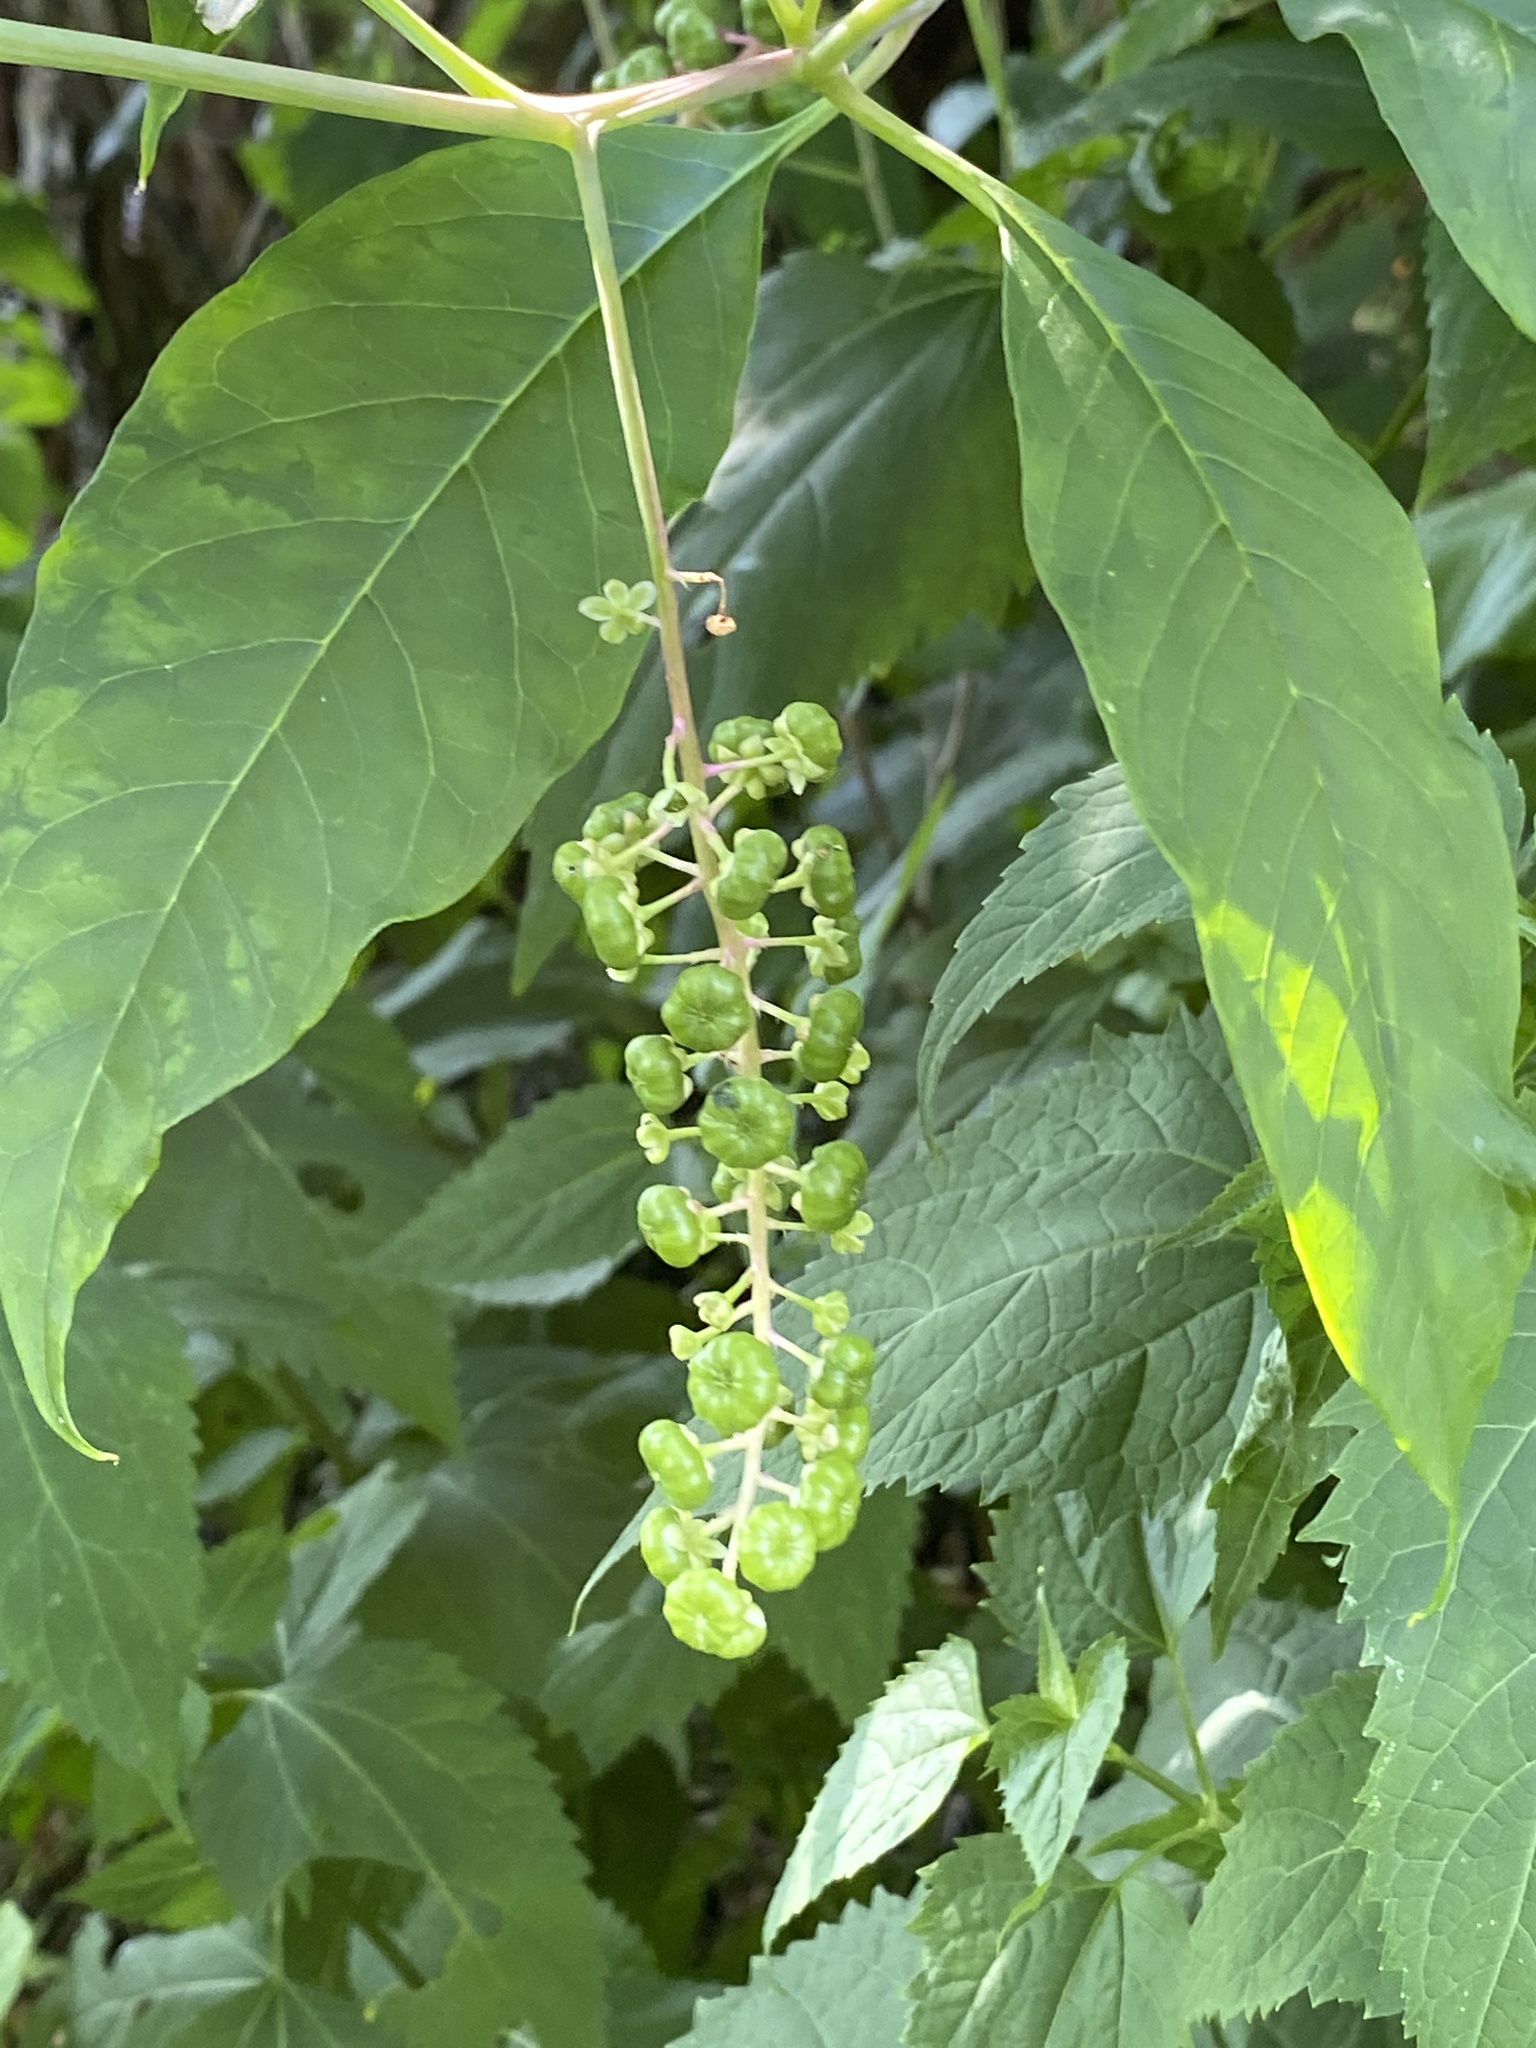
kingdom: Plantae
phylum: Tracheophyta
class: Magnoliopsida
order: Caryophyllales
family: Phytolaccaceae
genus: Phytolacca
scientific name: Phytolacca americana
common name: American pokeweed
